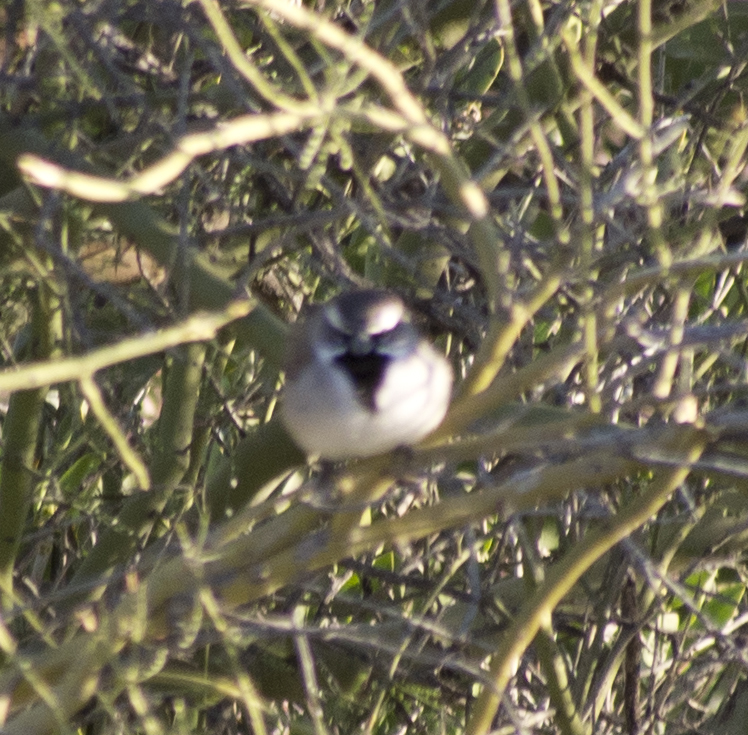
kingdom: Animalia
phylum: Chordata
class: Aves
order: Passeriformes
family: Passerellidae
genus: Amphispiza
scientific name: Amphispiza bilineata
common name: Black-throated sparrow
